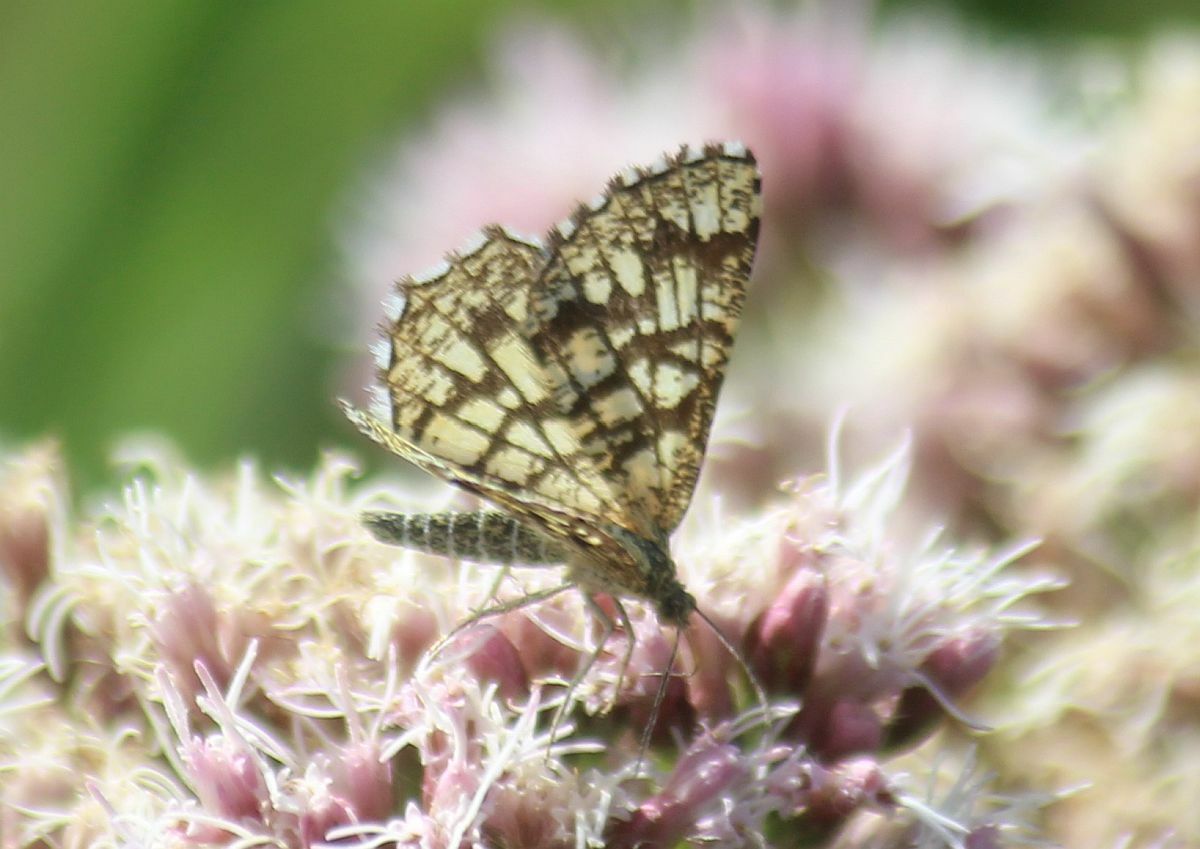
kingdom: Animalia
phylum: Arthropoda
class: Insecta
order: Lepidoptera
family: Geometridae
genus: Chiasmia
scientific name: Chiasmia clathrata
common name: Latticed heath
